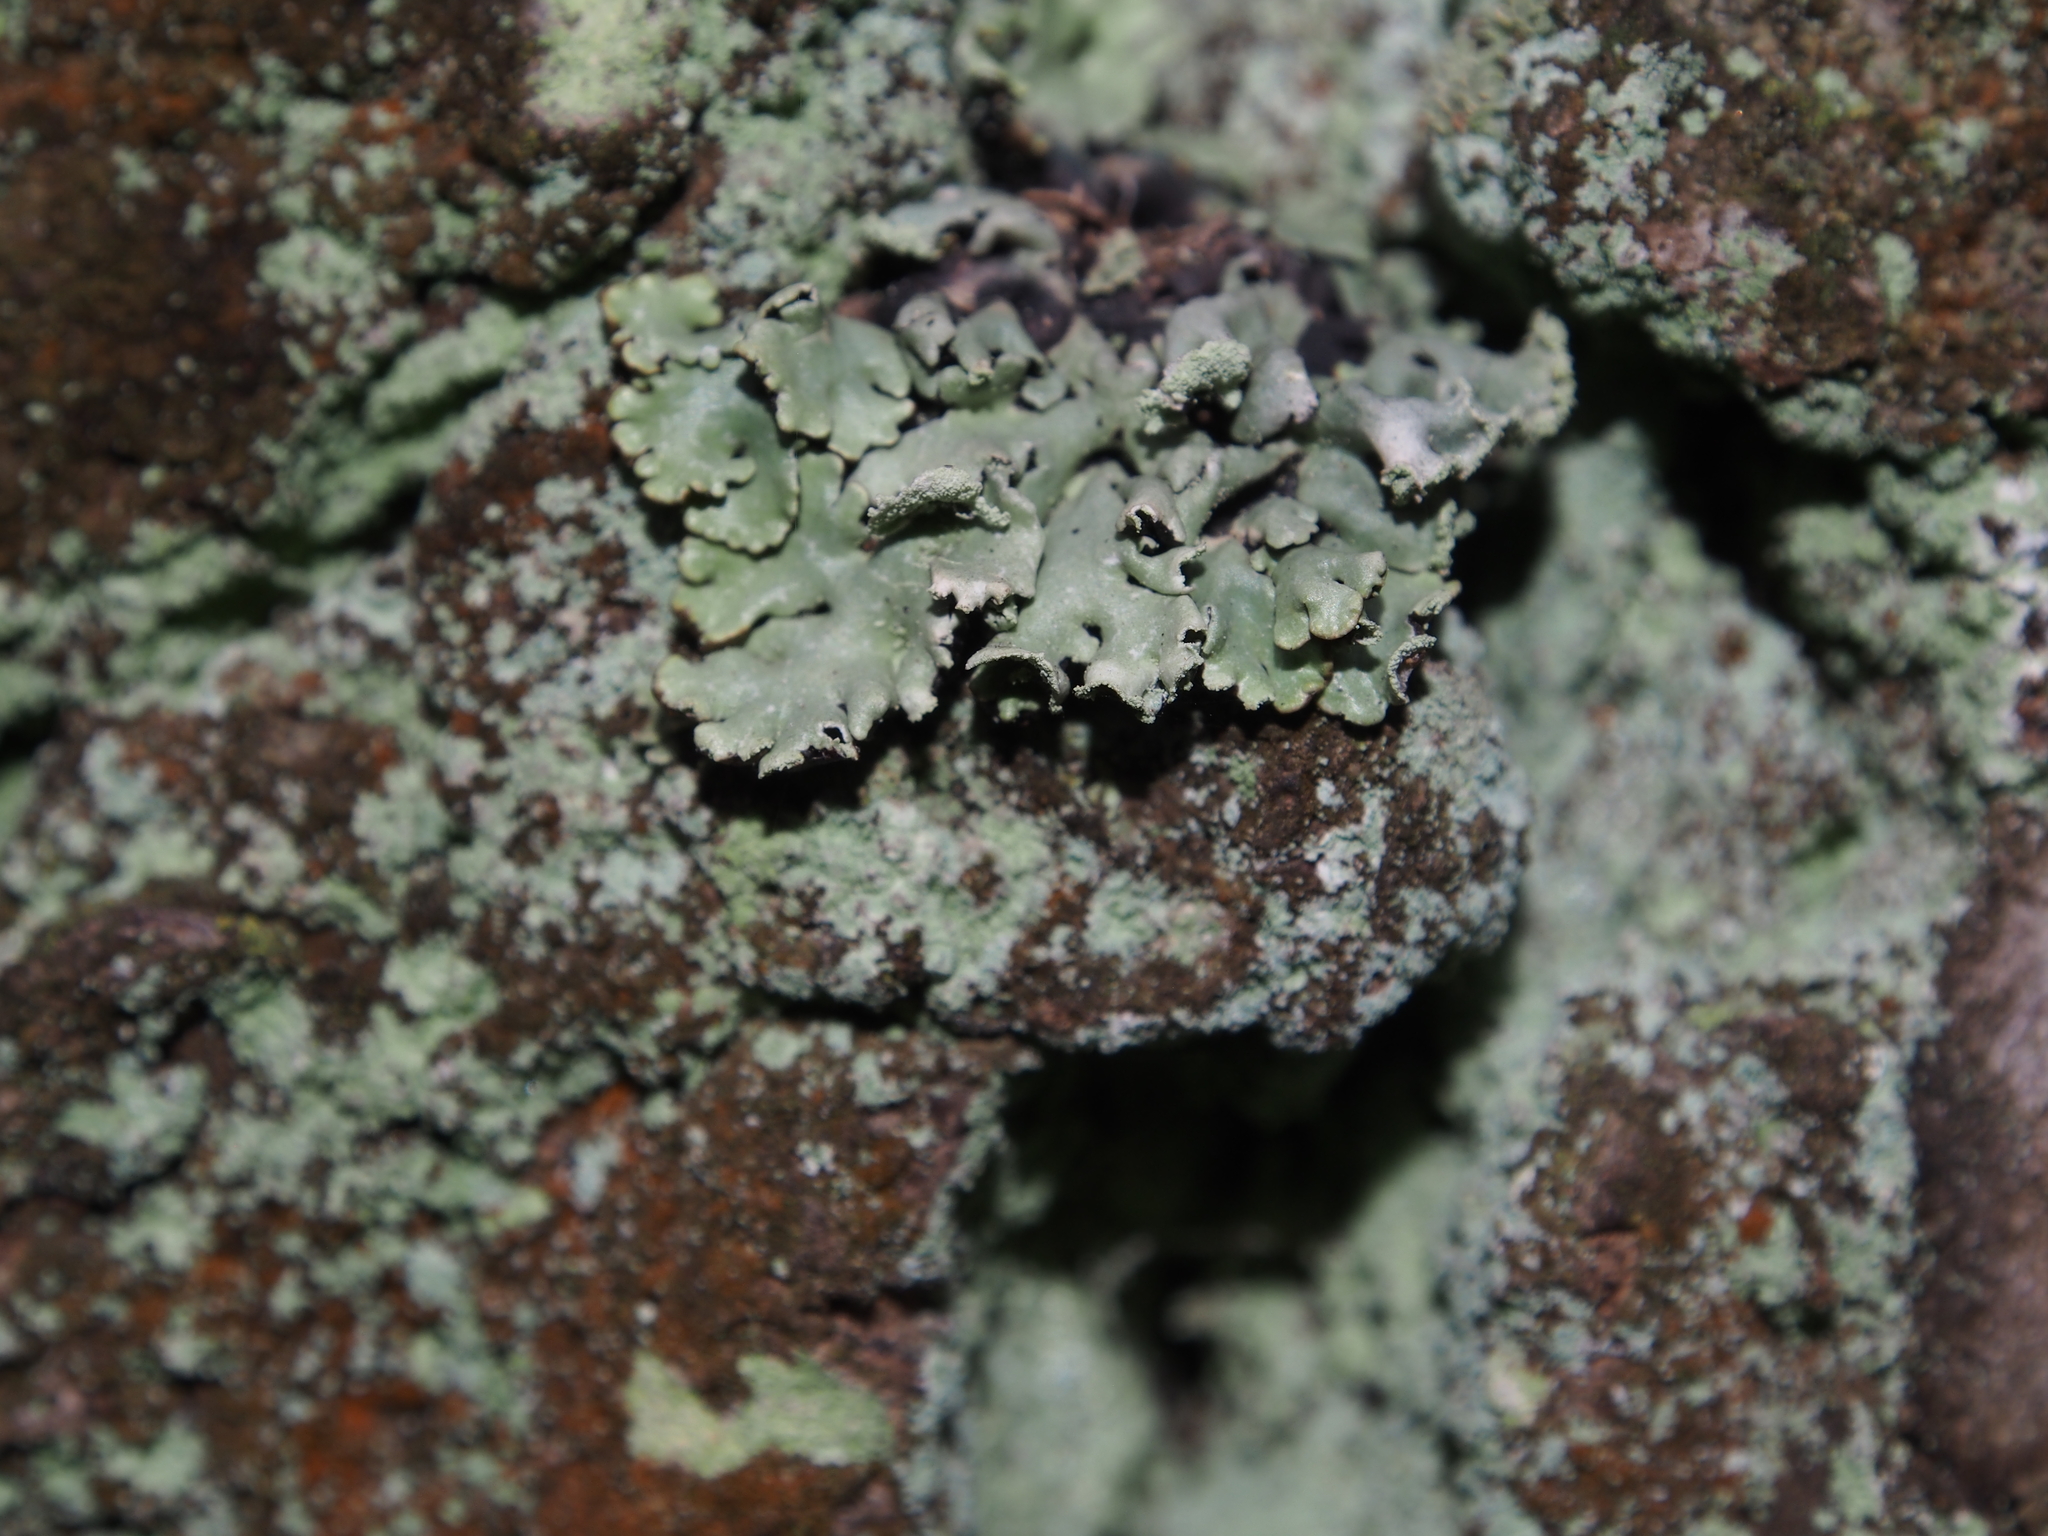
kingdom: Fungi
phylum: Ascomycota
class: Lecanoromycetes
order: Lecanorales
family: Parmeliaceae
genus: Hypogymnia
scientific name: Hypogymnia physodes
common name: Dark crottle
